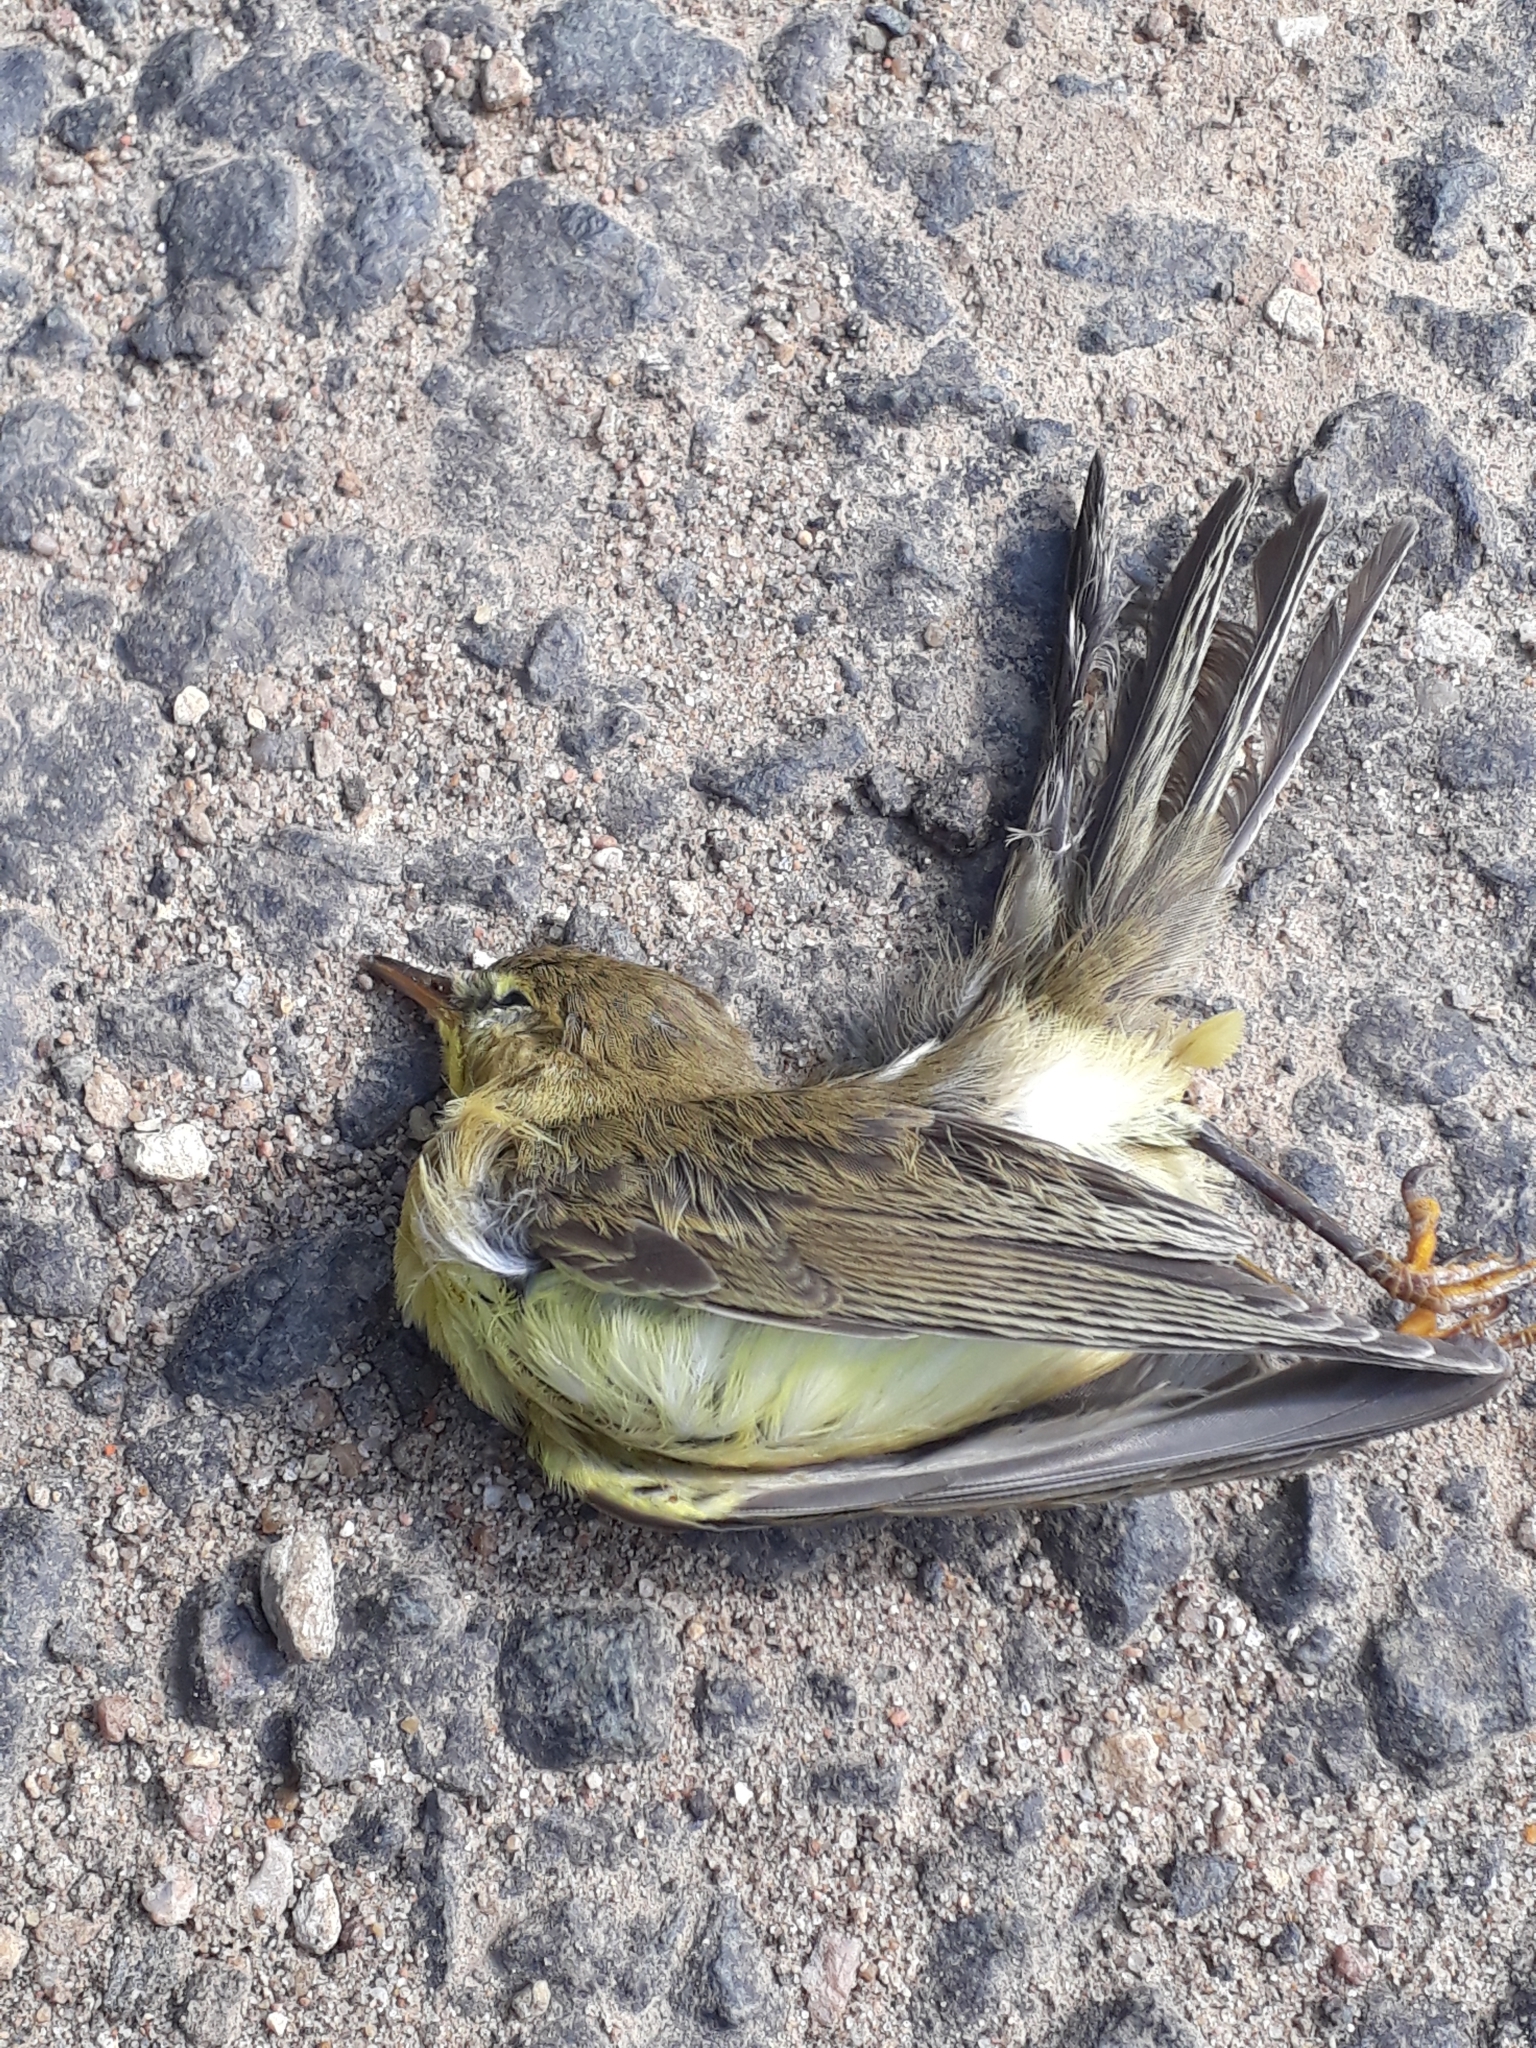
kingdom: Animalia
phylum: Chordata
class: Aves
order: Passeriformes
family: Phylloscopidae
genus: Phylloscopus
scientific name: Phylloscopus trochilus
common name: Willow warbler
